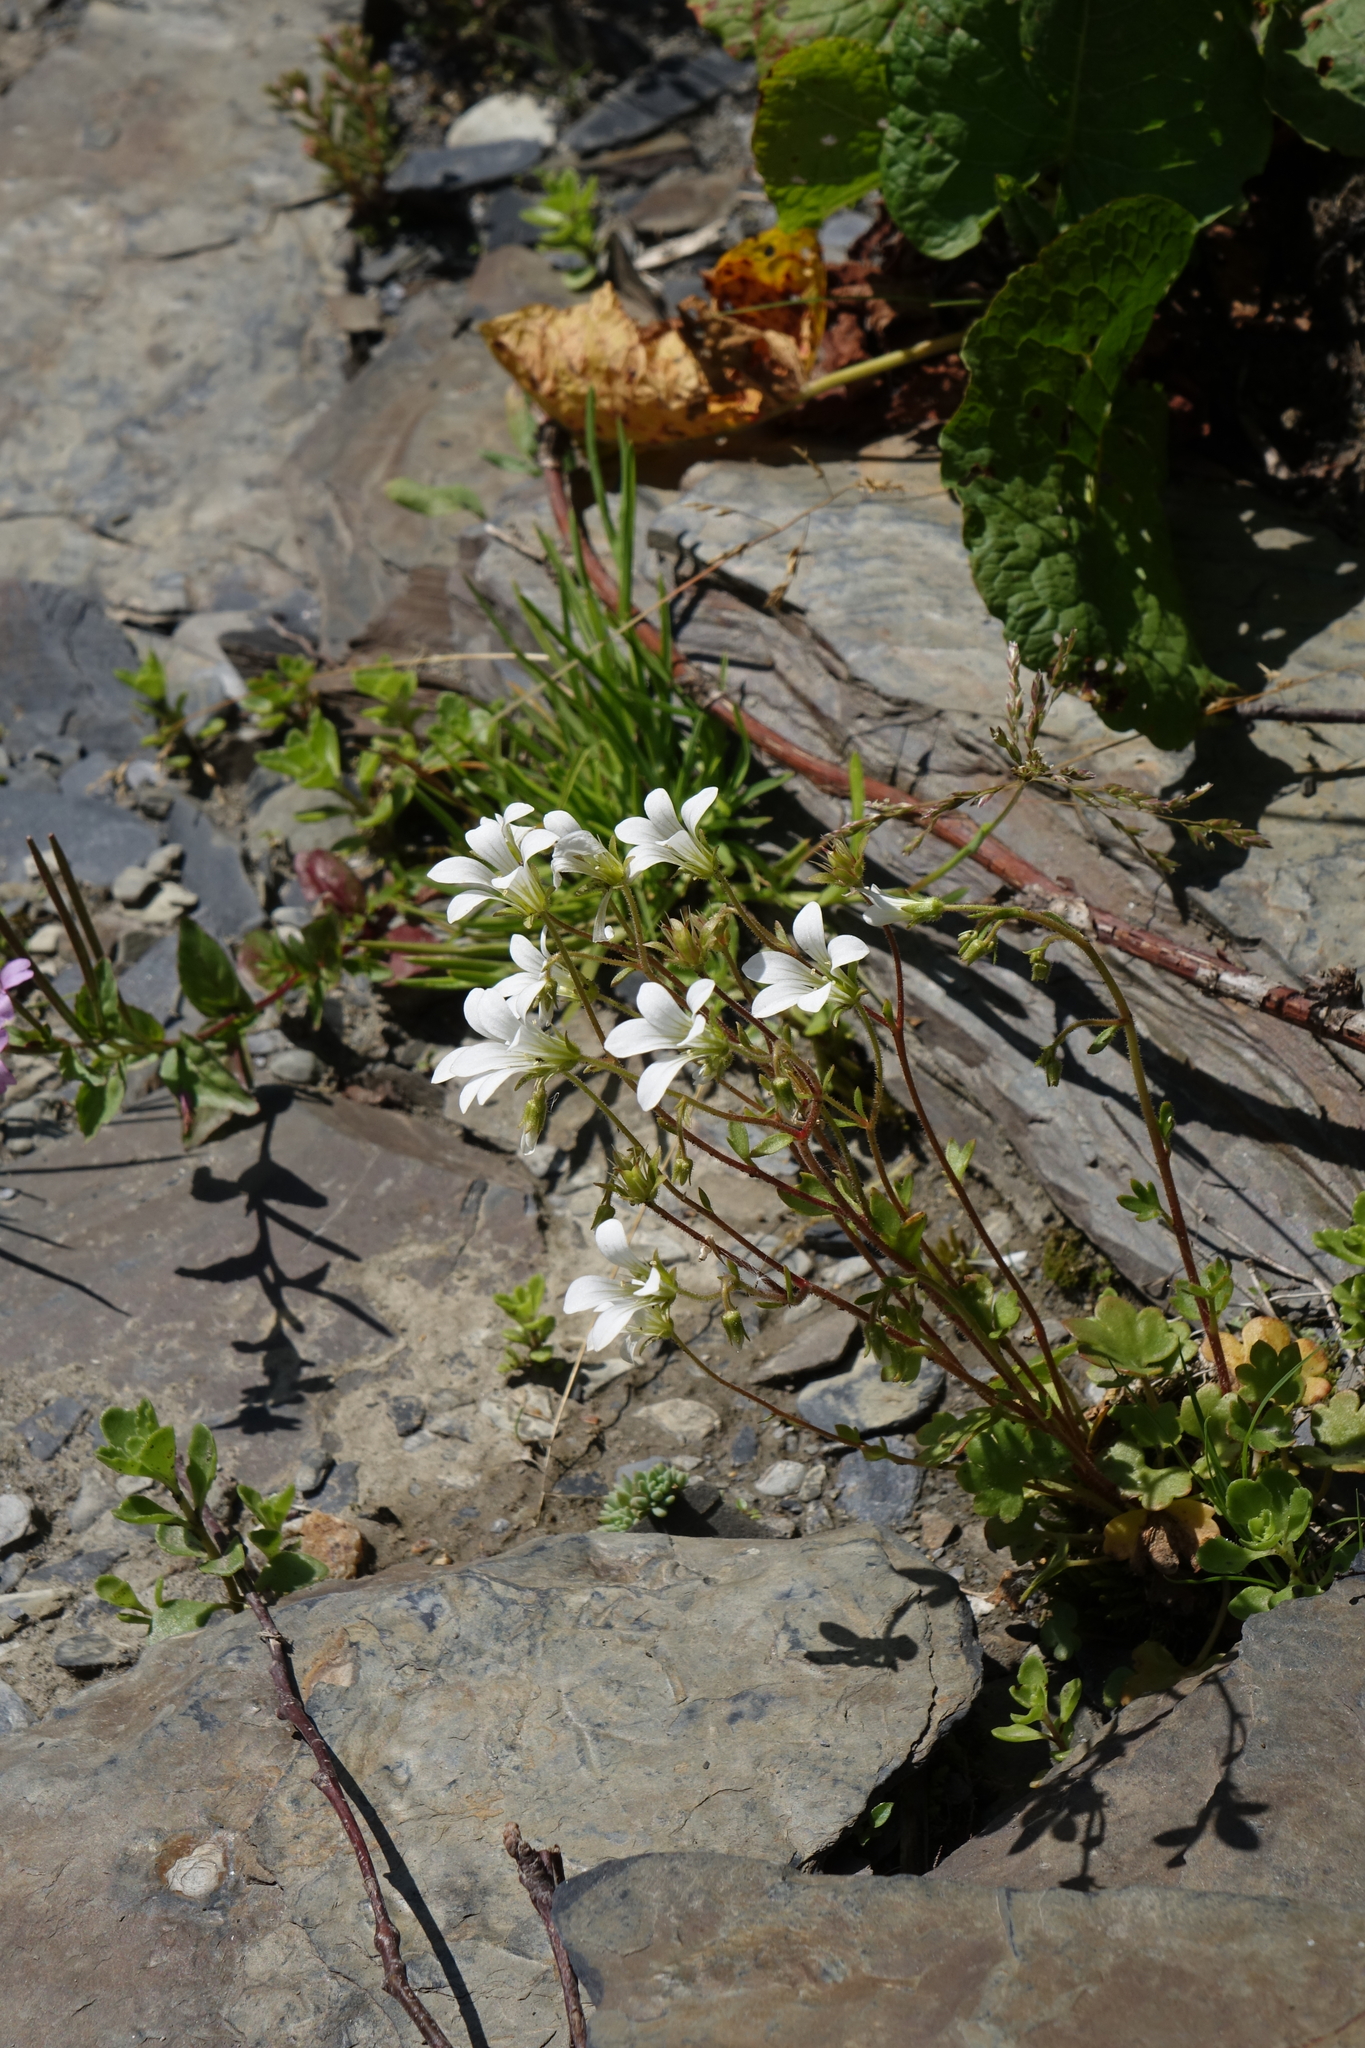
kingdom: Plantae
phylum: Tracheophyta
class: Magnoliopsida
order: Saxifragales
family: Saxifragaceae
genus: Saxifraga
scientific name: Saxifraga sibirica
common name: Siberian saxifrage
